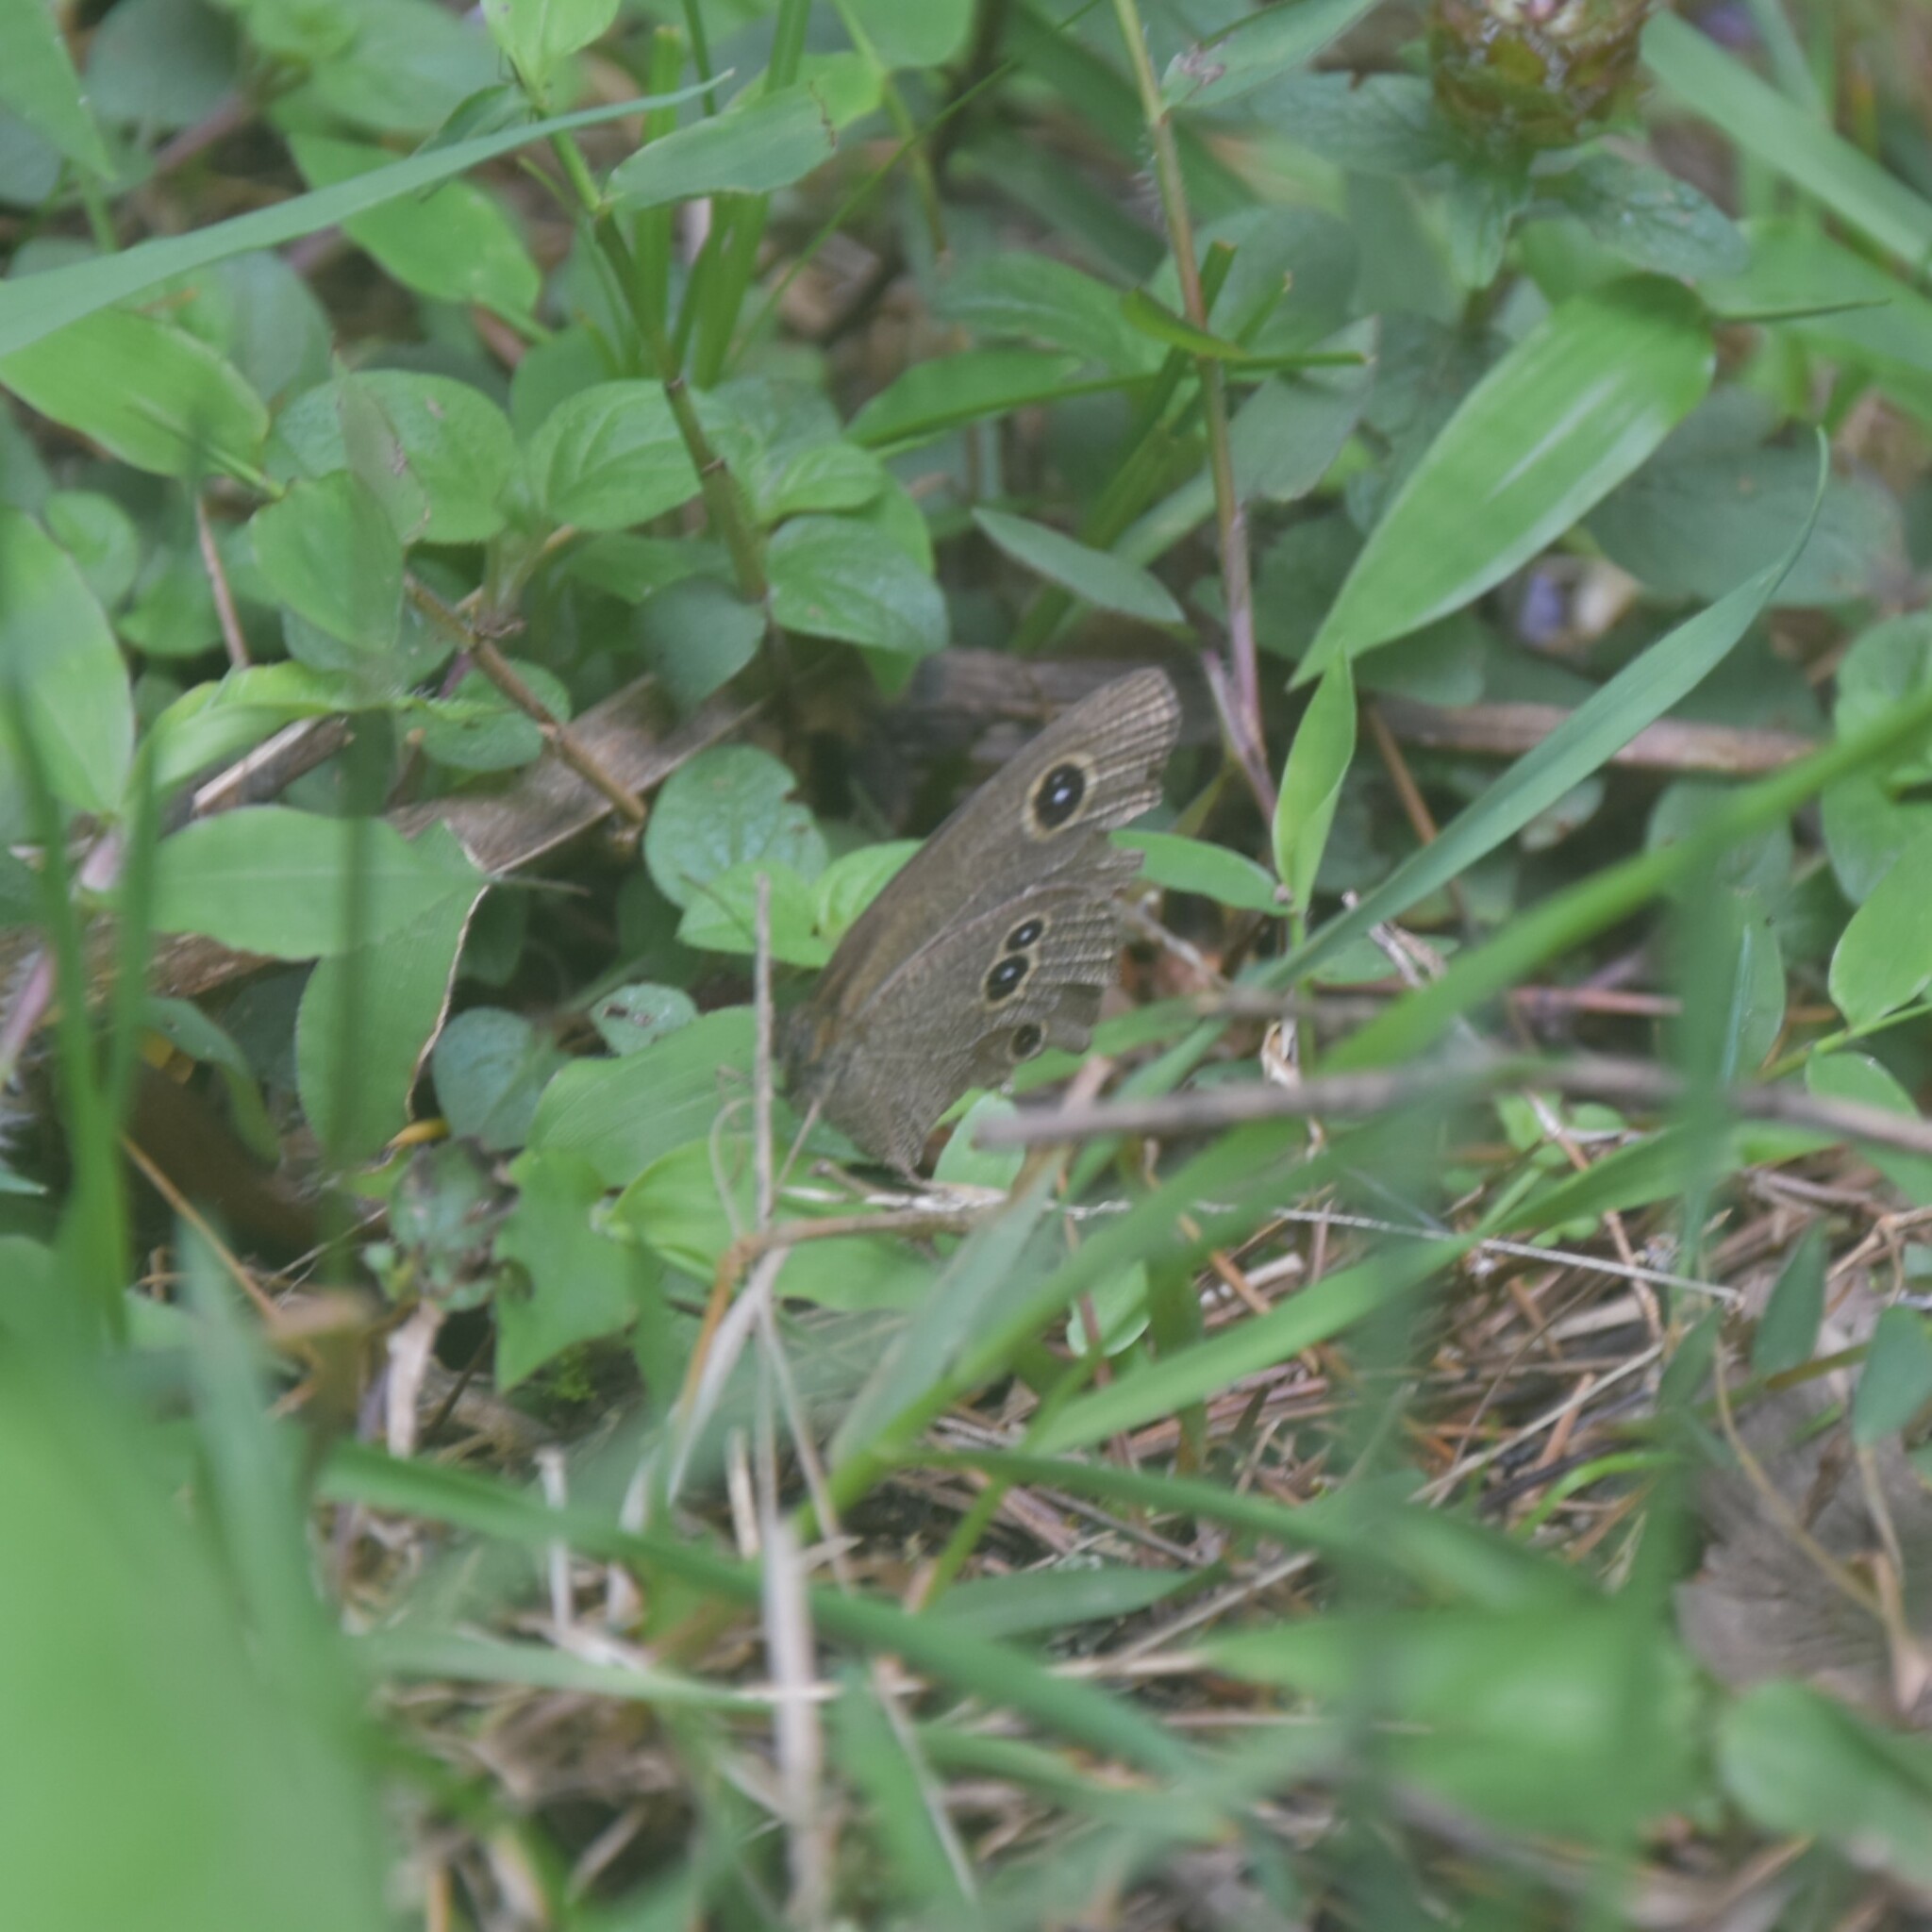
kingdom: Animalia
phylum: Arthropoda
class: Insecta
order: Lepidoptera
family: Nymphalidae
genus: Ypthima
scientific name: Ypthima nikaea
